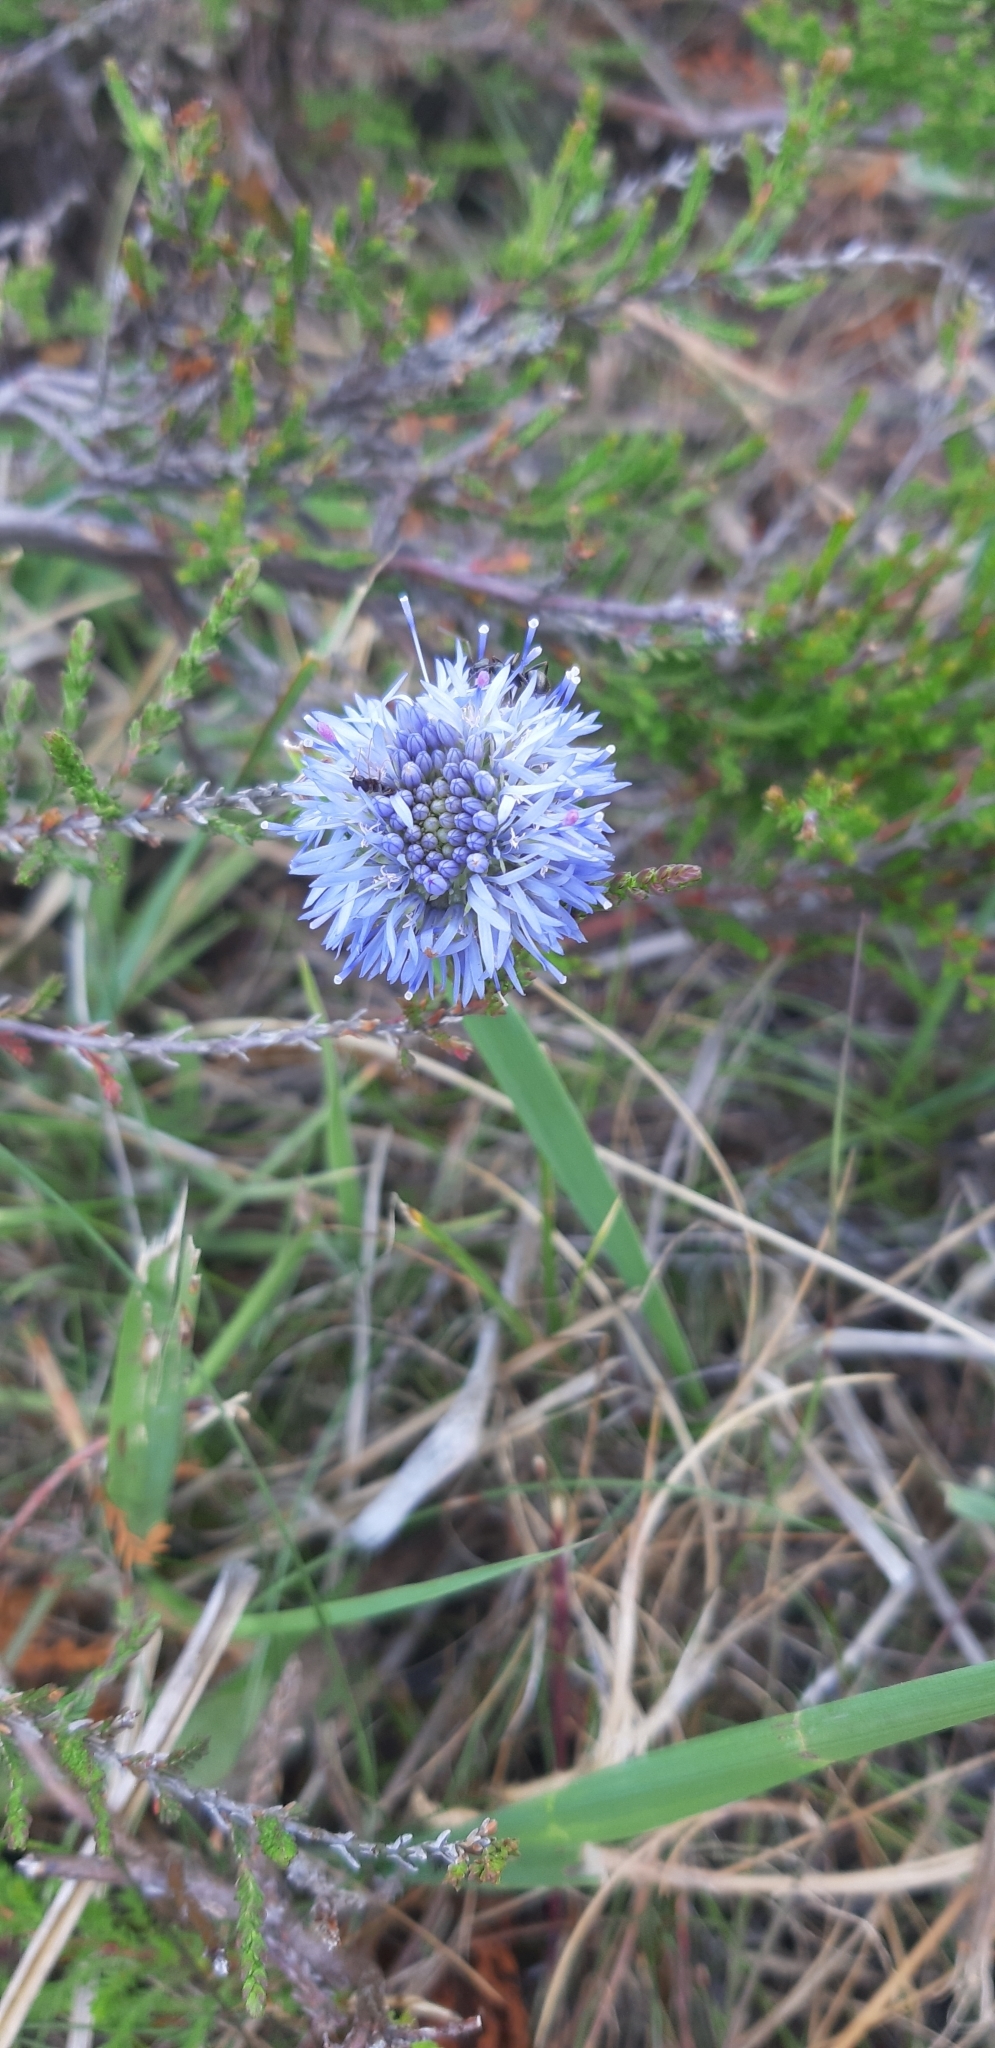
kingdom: Plantae
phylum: Tracheophyta
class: Magnoliopsida
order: Asterales
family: Campanulaceae
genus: Jasione
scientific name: Jasione montana
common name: Sheep's-bit
